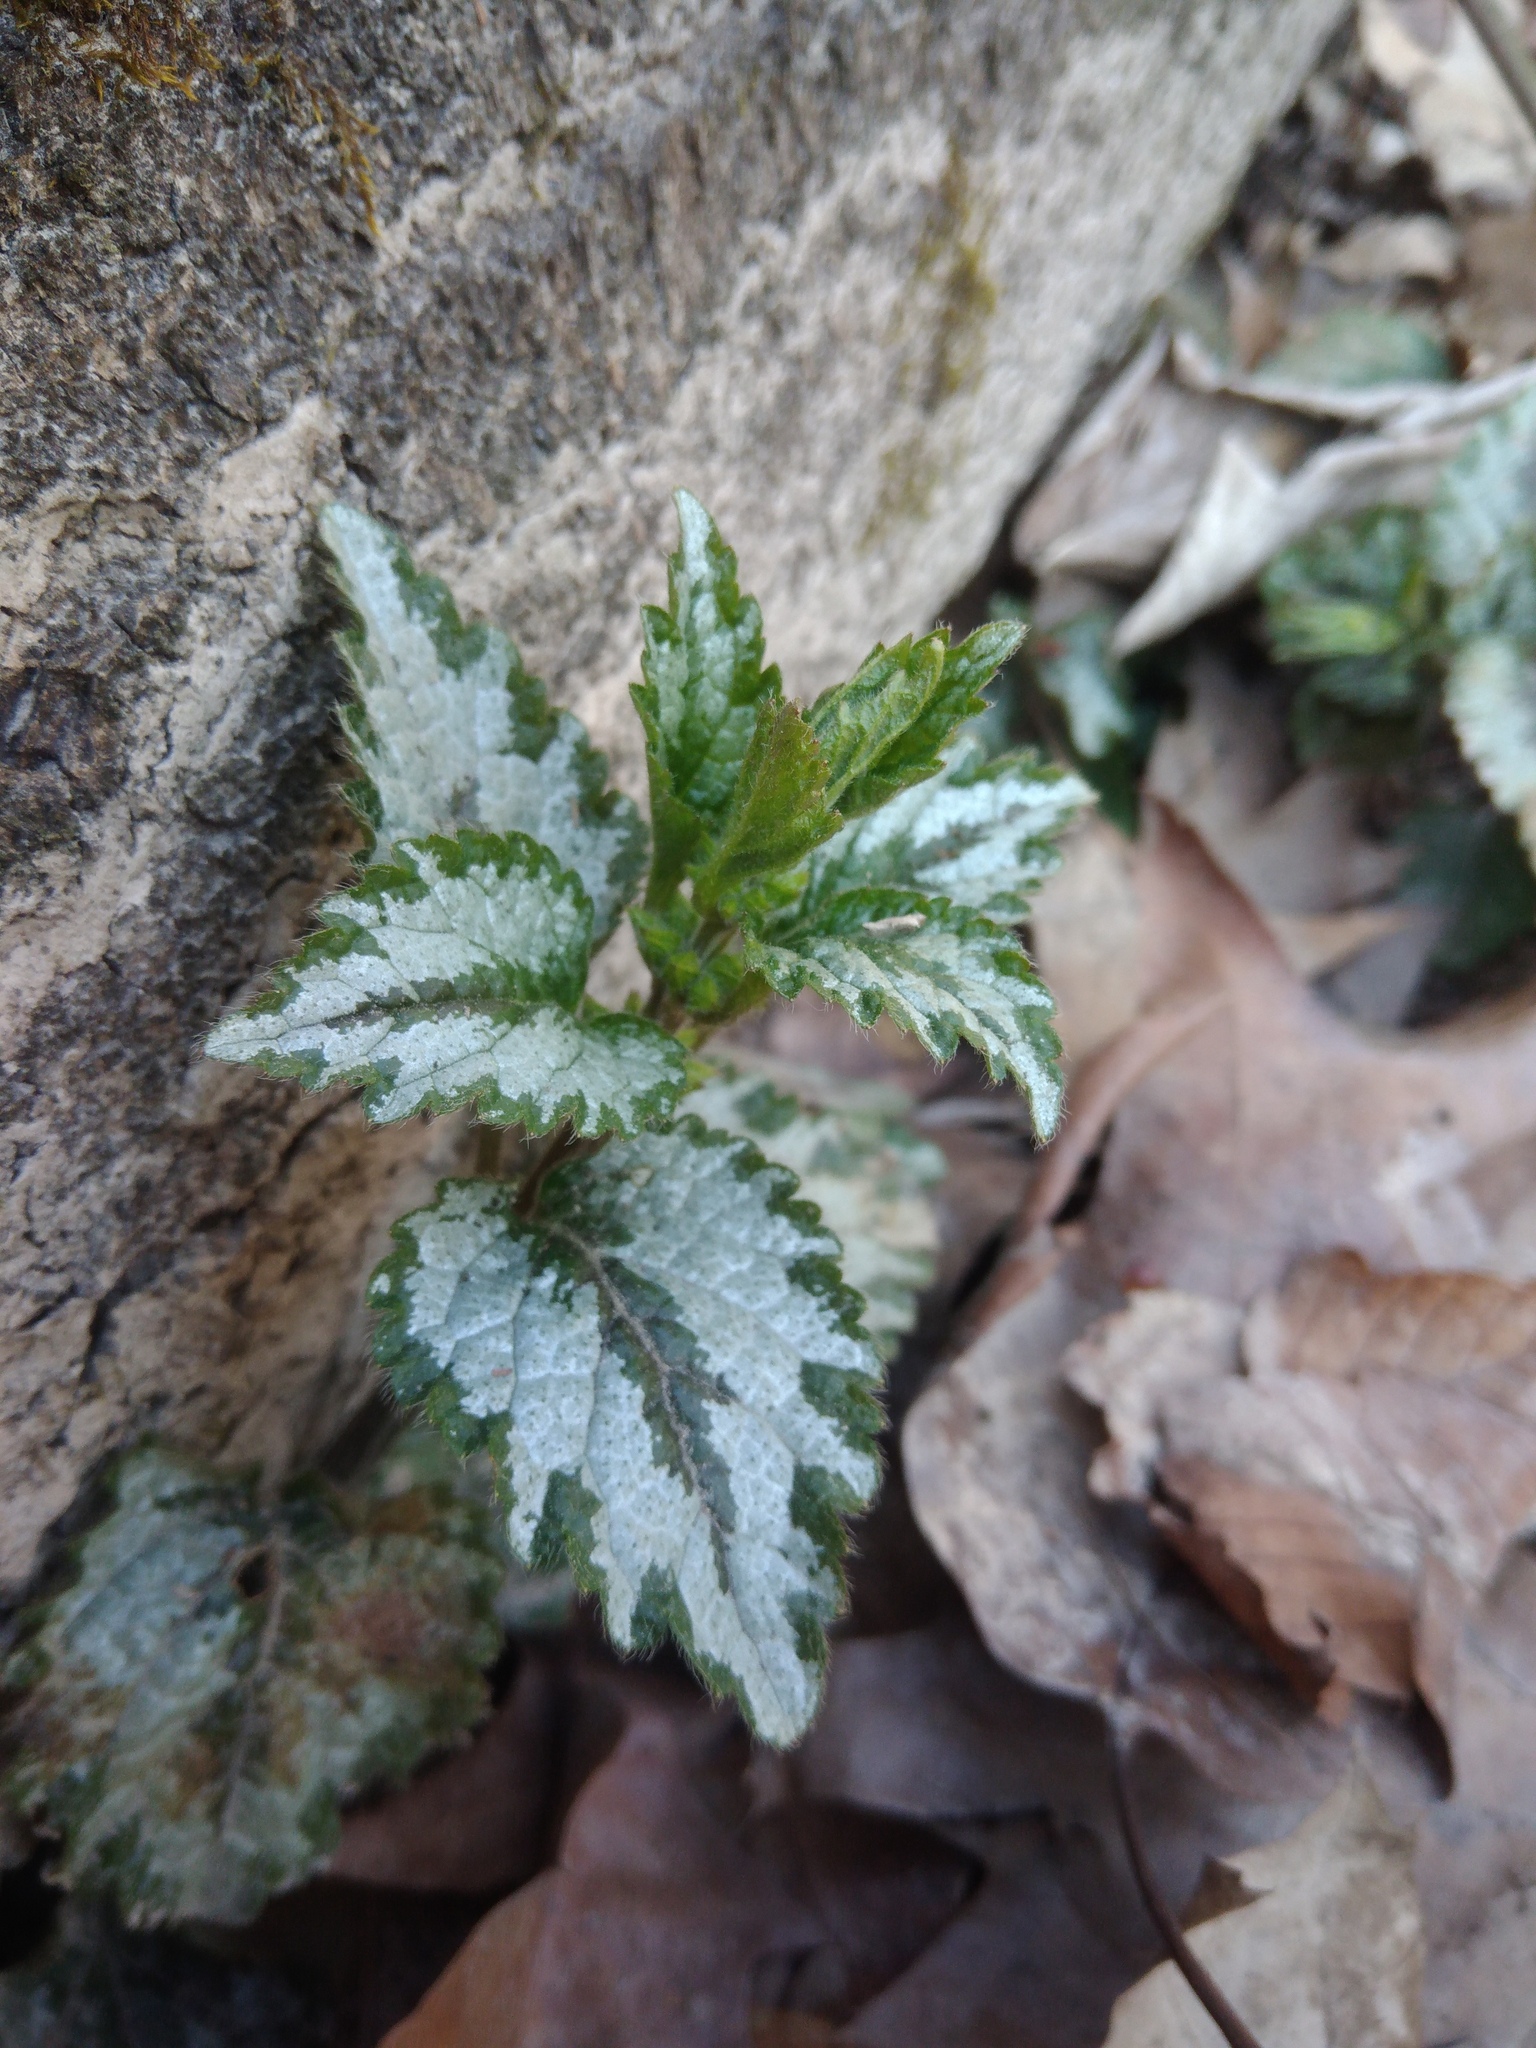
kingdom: Plantae
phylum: Tracheophyta
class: Magnoliopsida
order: Lamiales
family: Lamiaceae
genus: Lamium
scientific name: Lamium galeobdolon
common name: Yellow archangel
